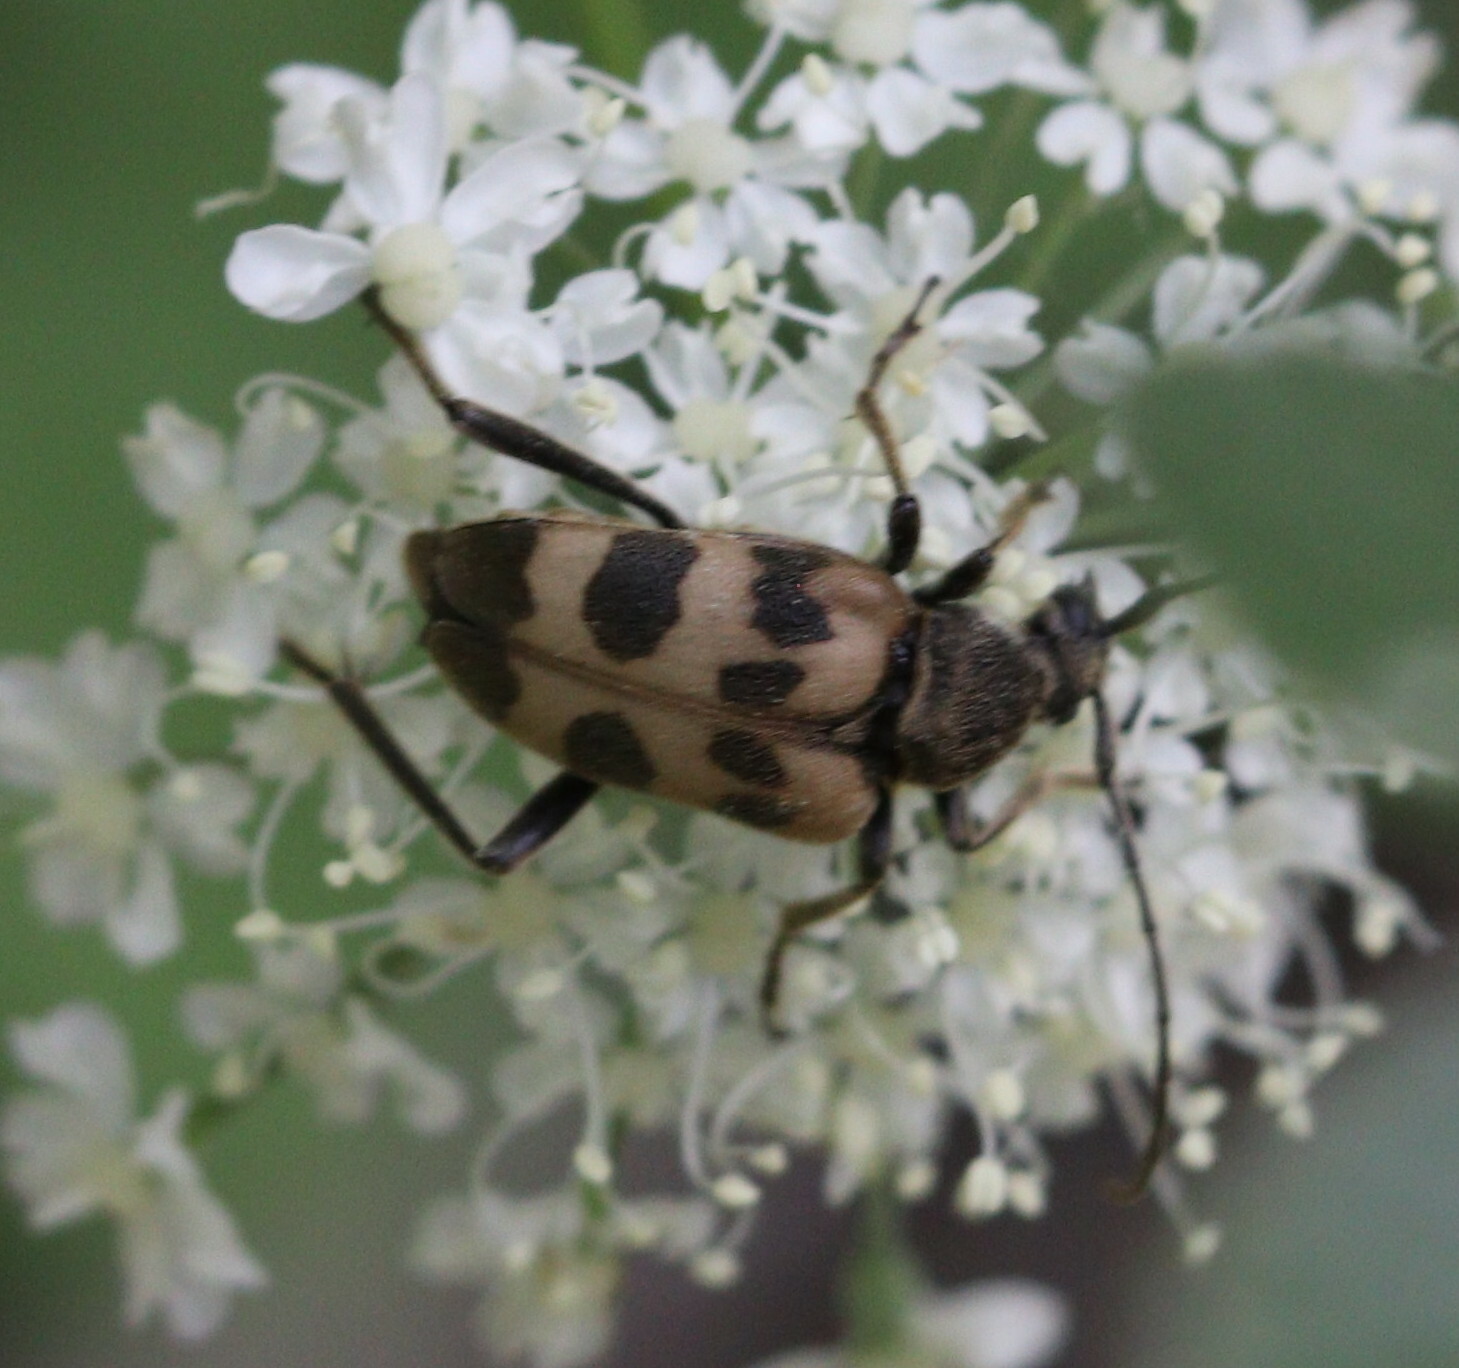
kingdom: Animalia
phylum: Arthropoda
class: Insecta
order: Coleoptera
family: Cerambycidae
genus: Pachytodes
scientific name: Pachytodes cerambyciformis
